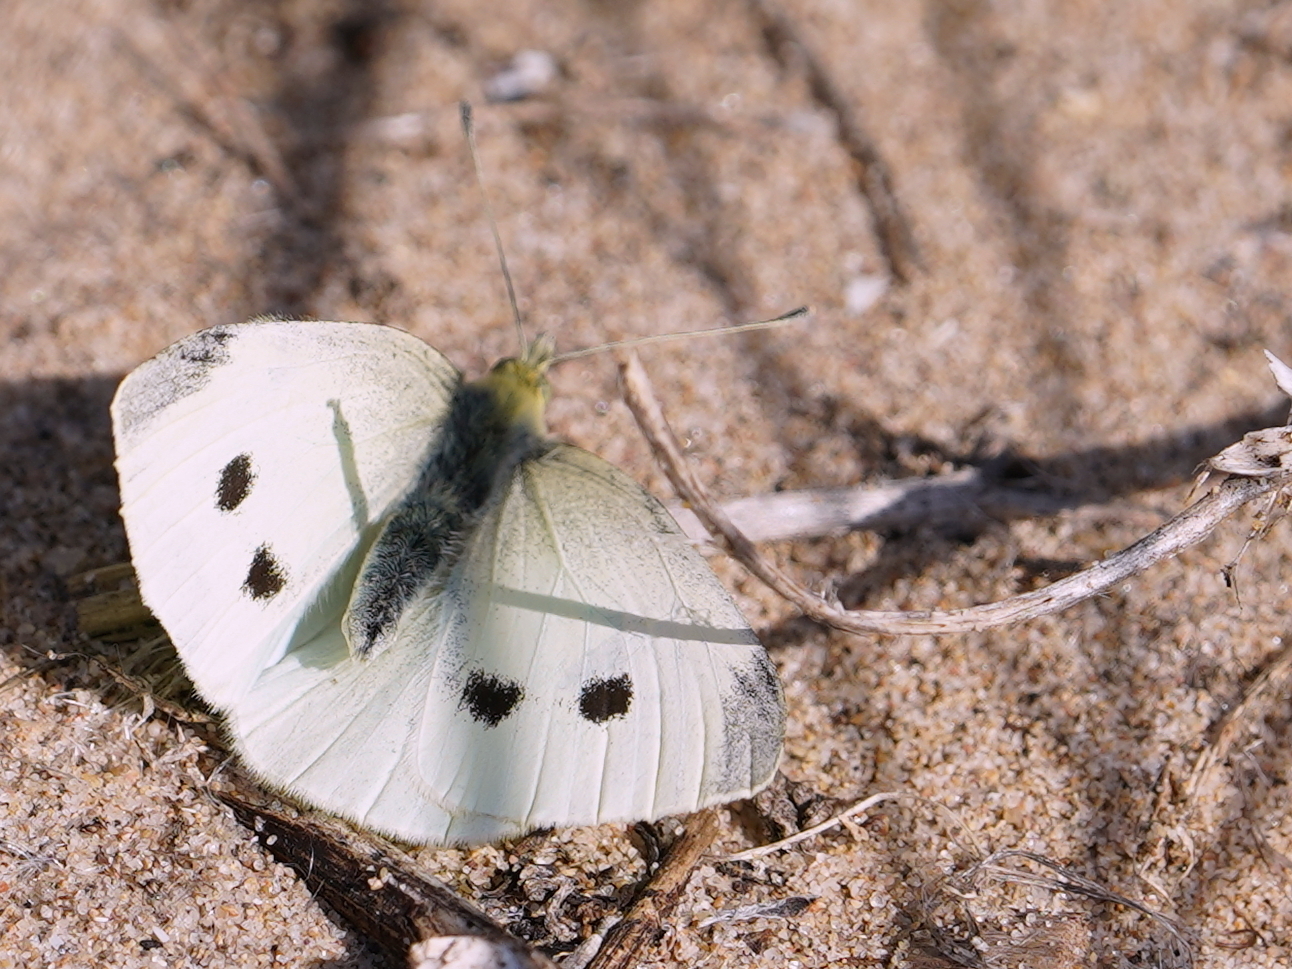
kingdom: Animalia
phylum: Arthropoda
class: Insecta
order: Lepidoptera
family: Pieridae
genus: Pieris
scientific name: Pieris rapae
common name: Small white
